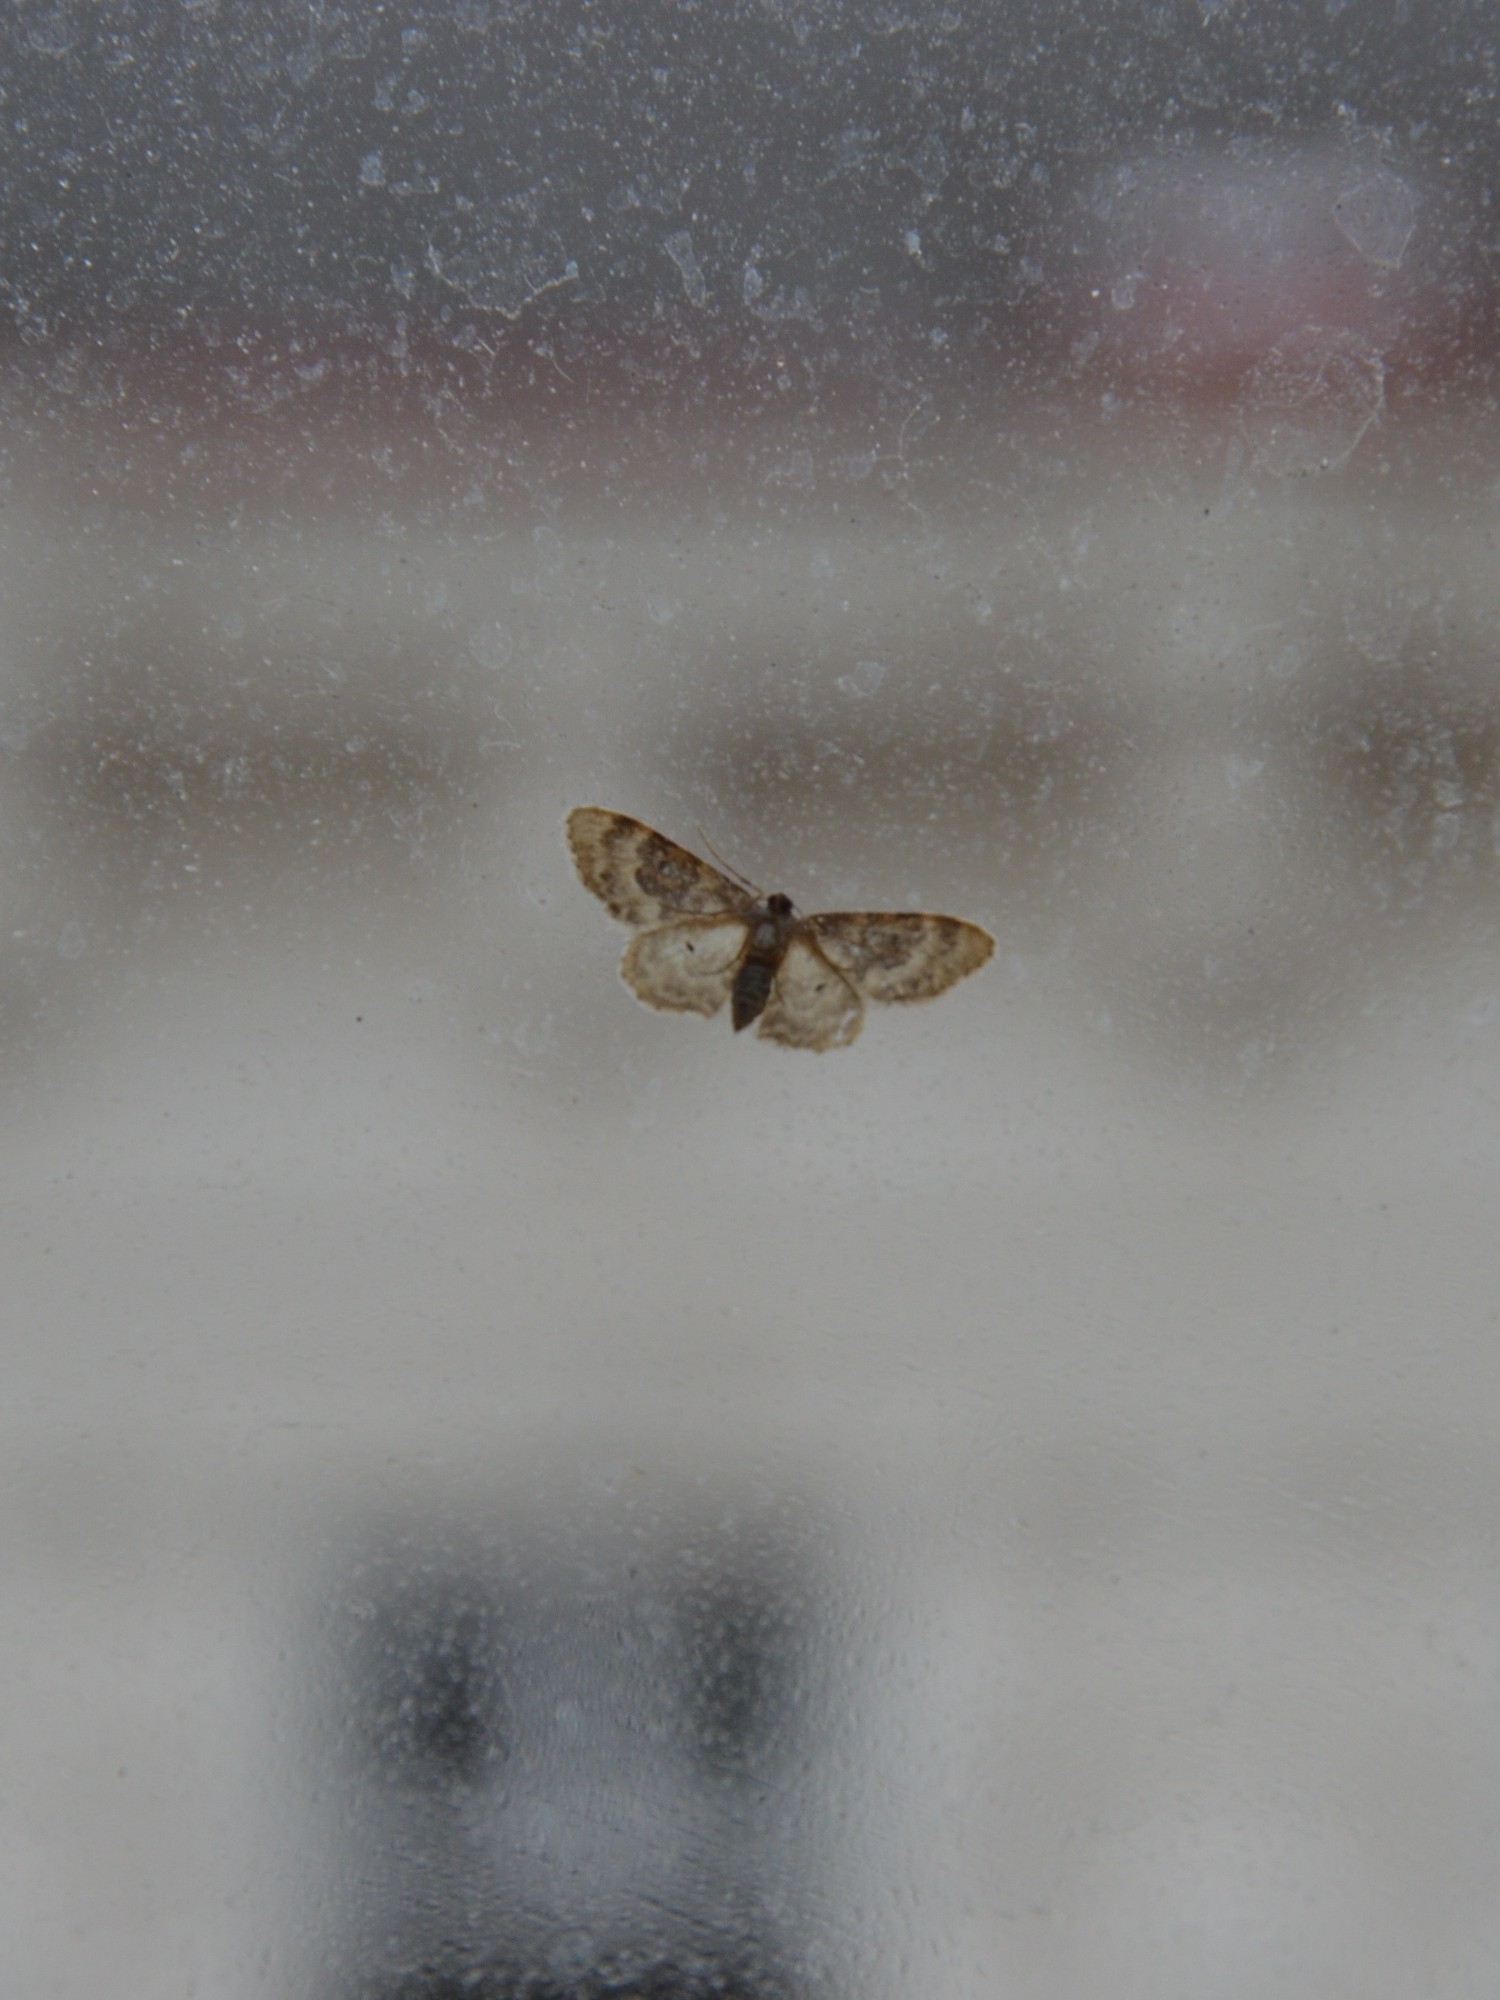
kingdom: Animalia
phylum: Arthropoda
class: Insecta
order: Lepidoptera
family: Geometridae
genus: Idaea
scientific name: Idaea rusticata
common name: Least carpet
